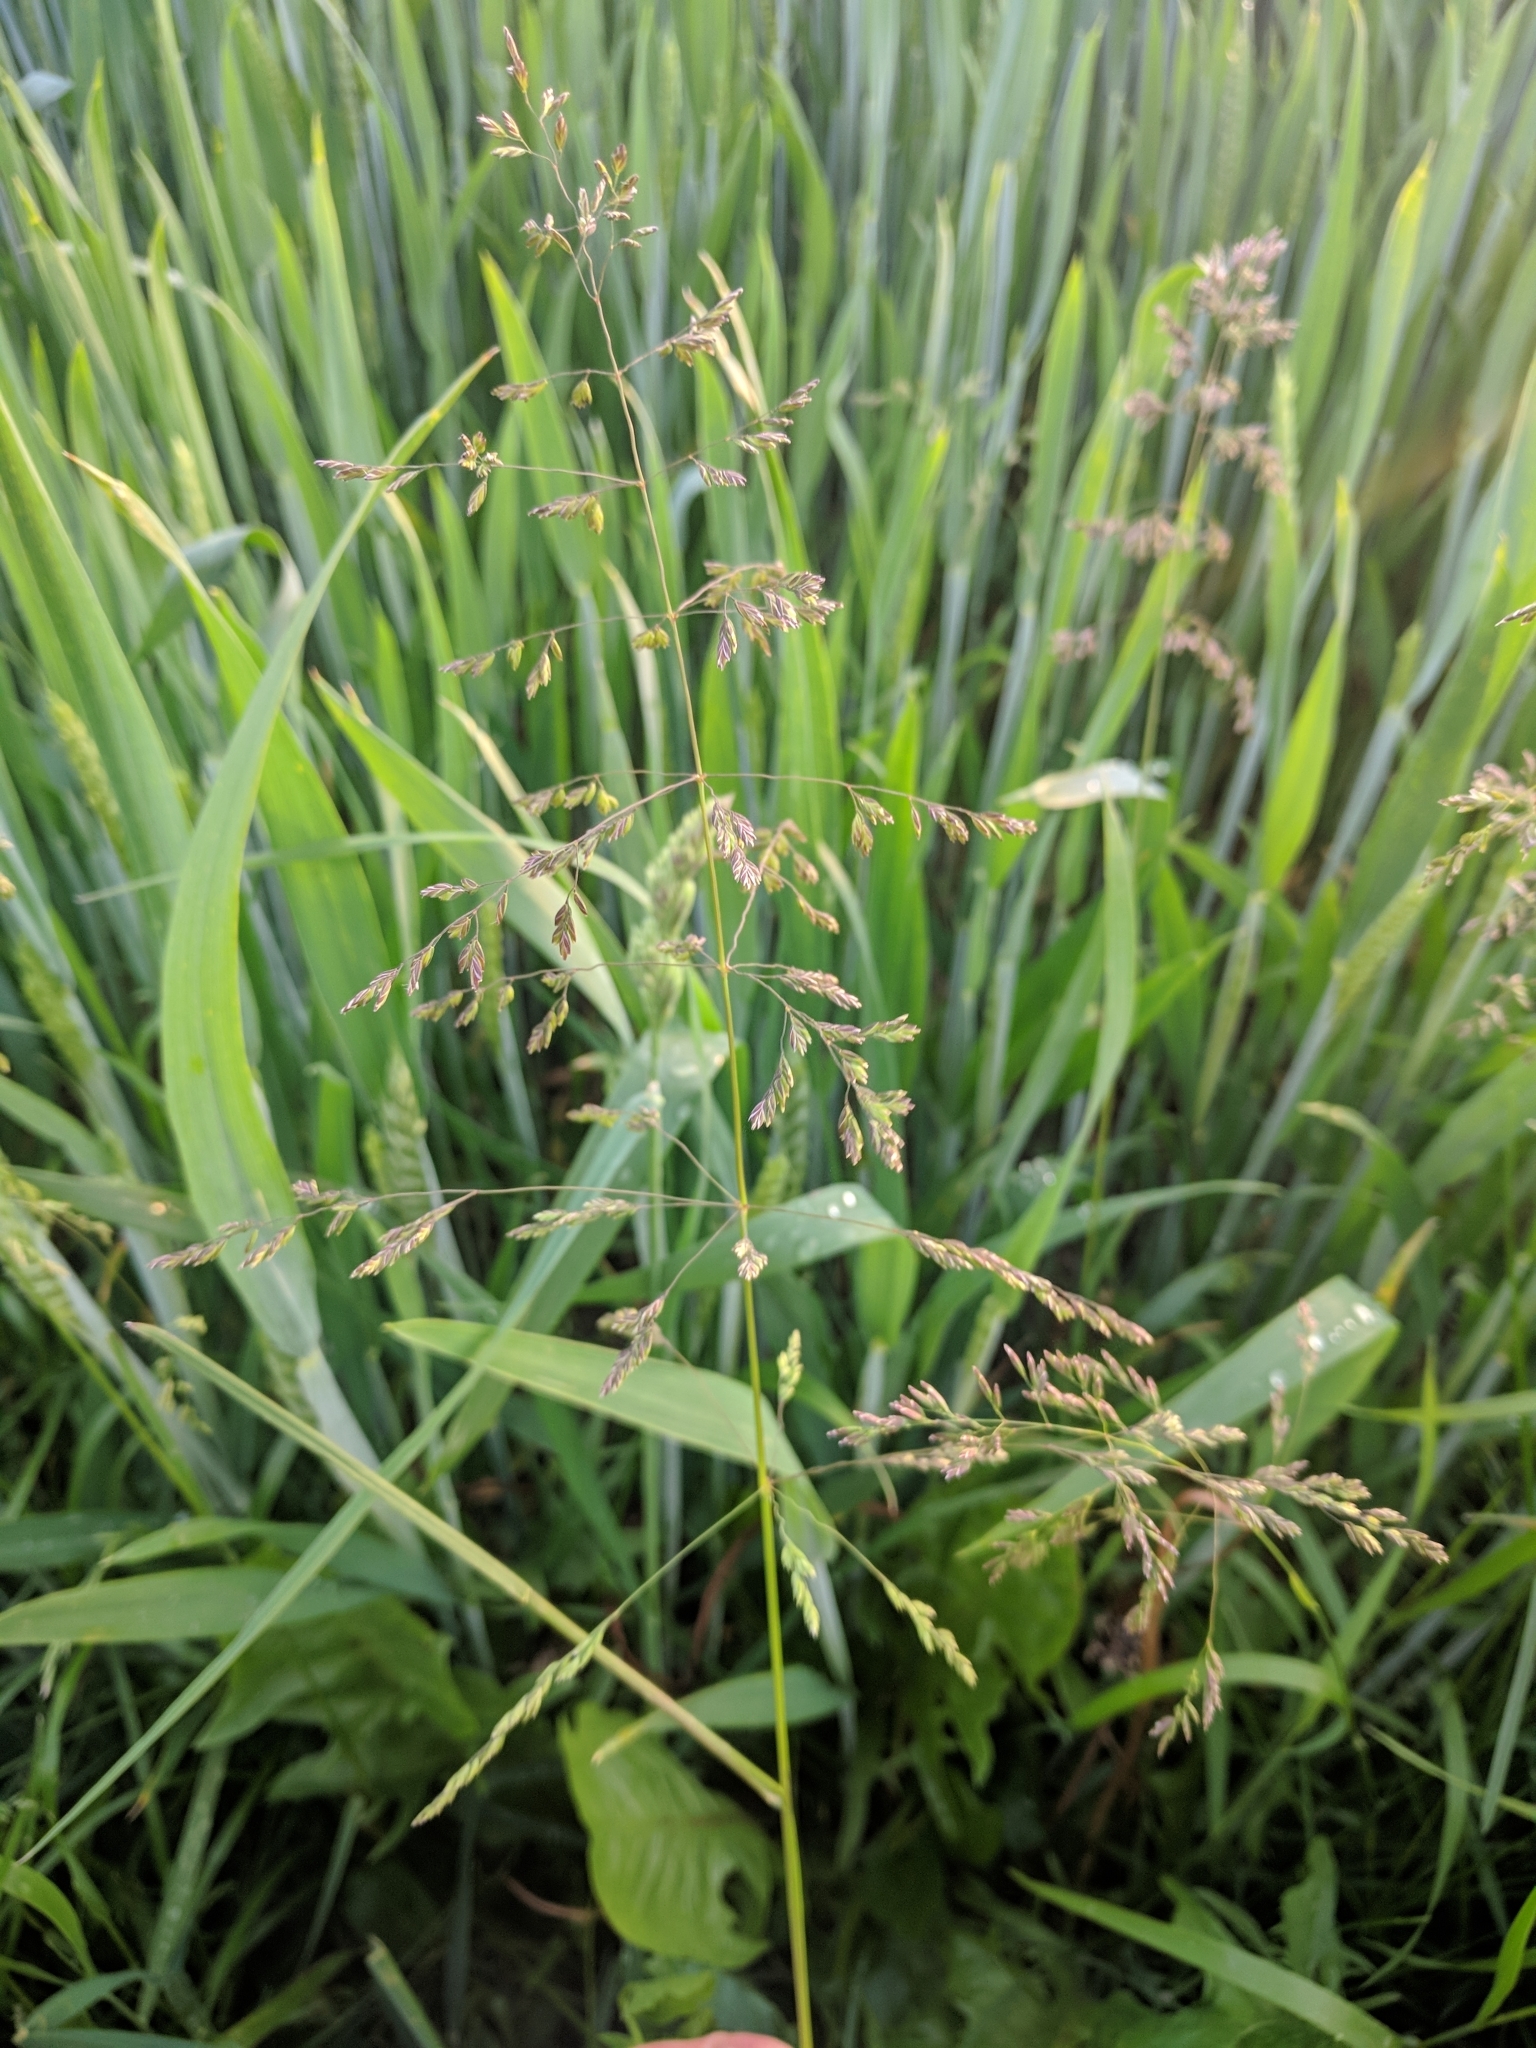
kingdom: Plantae
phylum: Tracheophyta
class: Liliopsida
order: Poales
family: Poaceae
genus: Poa
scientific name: Poa trivialis
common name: Rough bluegrass
